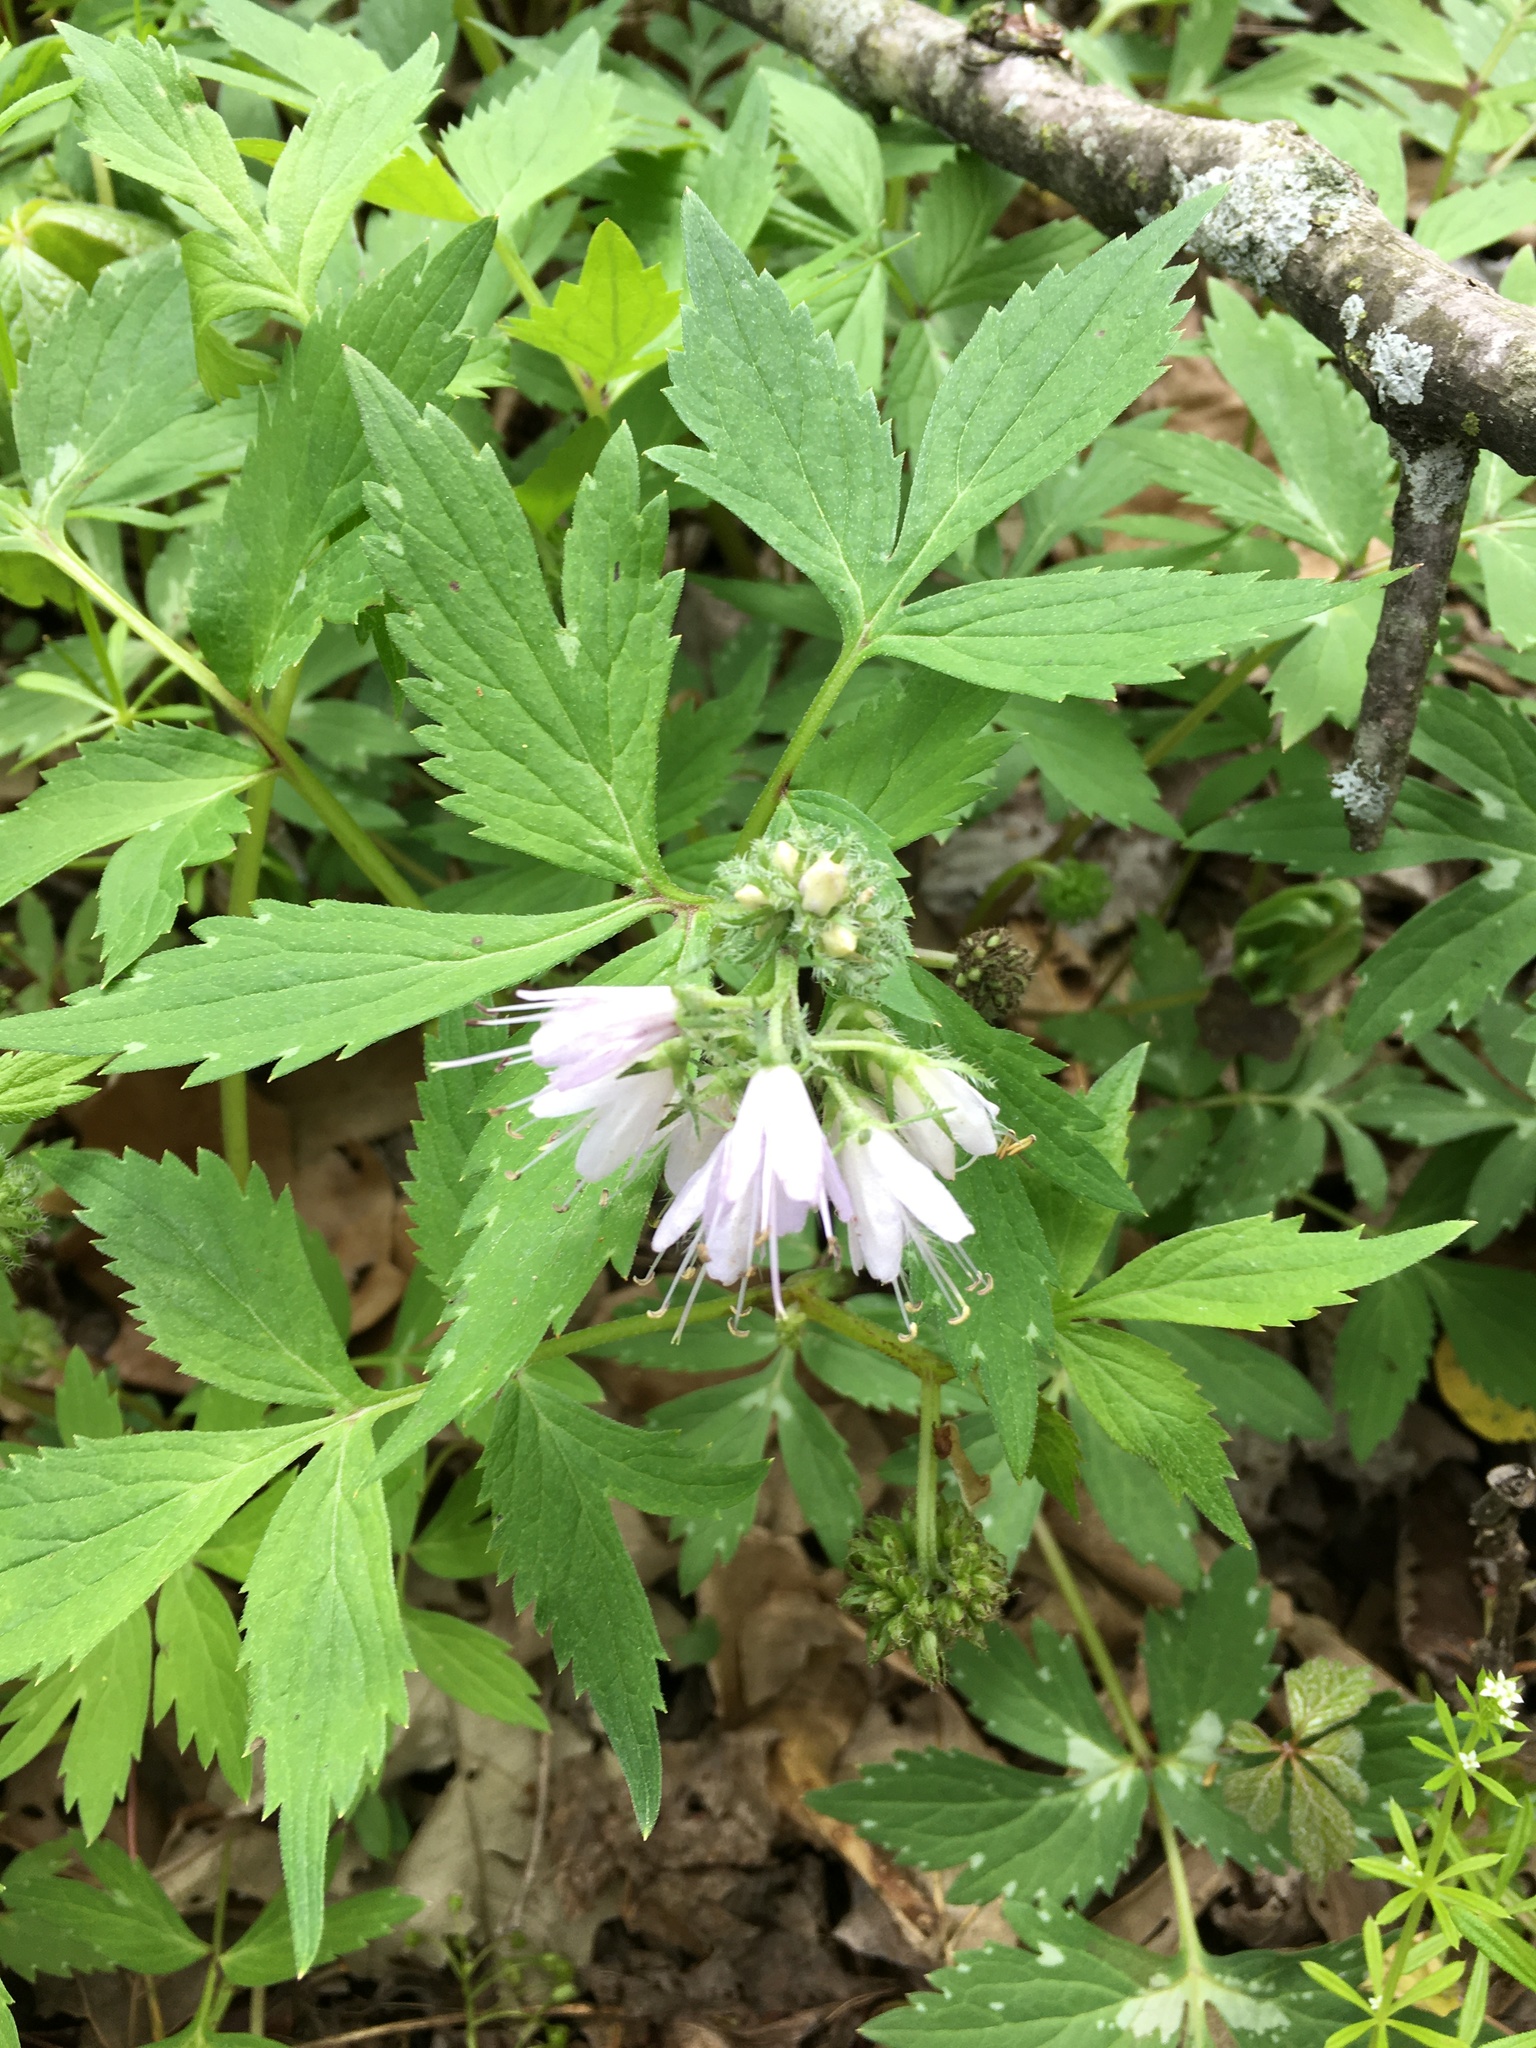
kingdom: Plantae
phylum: Tracheophyta
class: Magnoliopsida
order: Boraginales
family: Hydrophyllaceae
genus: Hydrophyllum
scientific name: Hydrophyllum virginianum
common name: Virginia waterleaf
